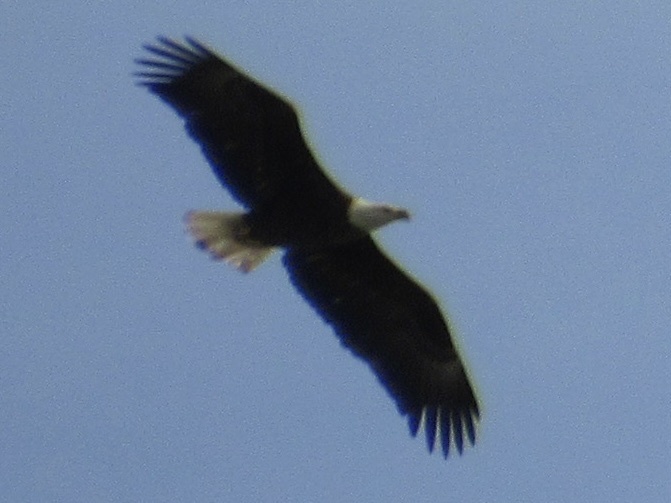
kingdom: Animalia
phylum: Chordata
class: Aves
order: Accipitriformes
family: Accipitridae
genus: Haliaeetus
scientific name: Haliaeetus leucocephalus
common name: Bald eagle
